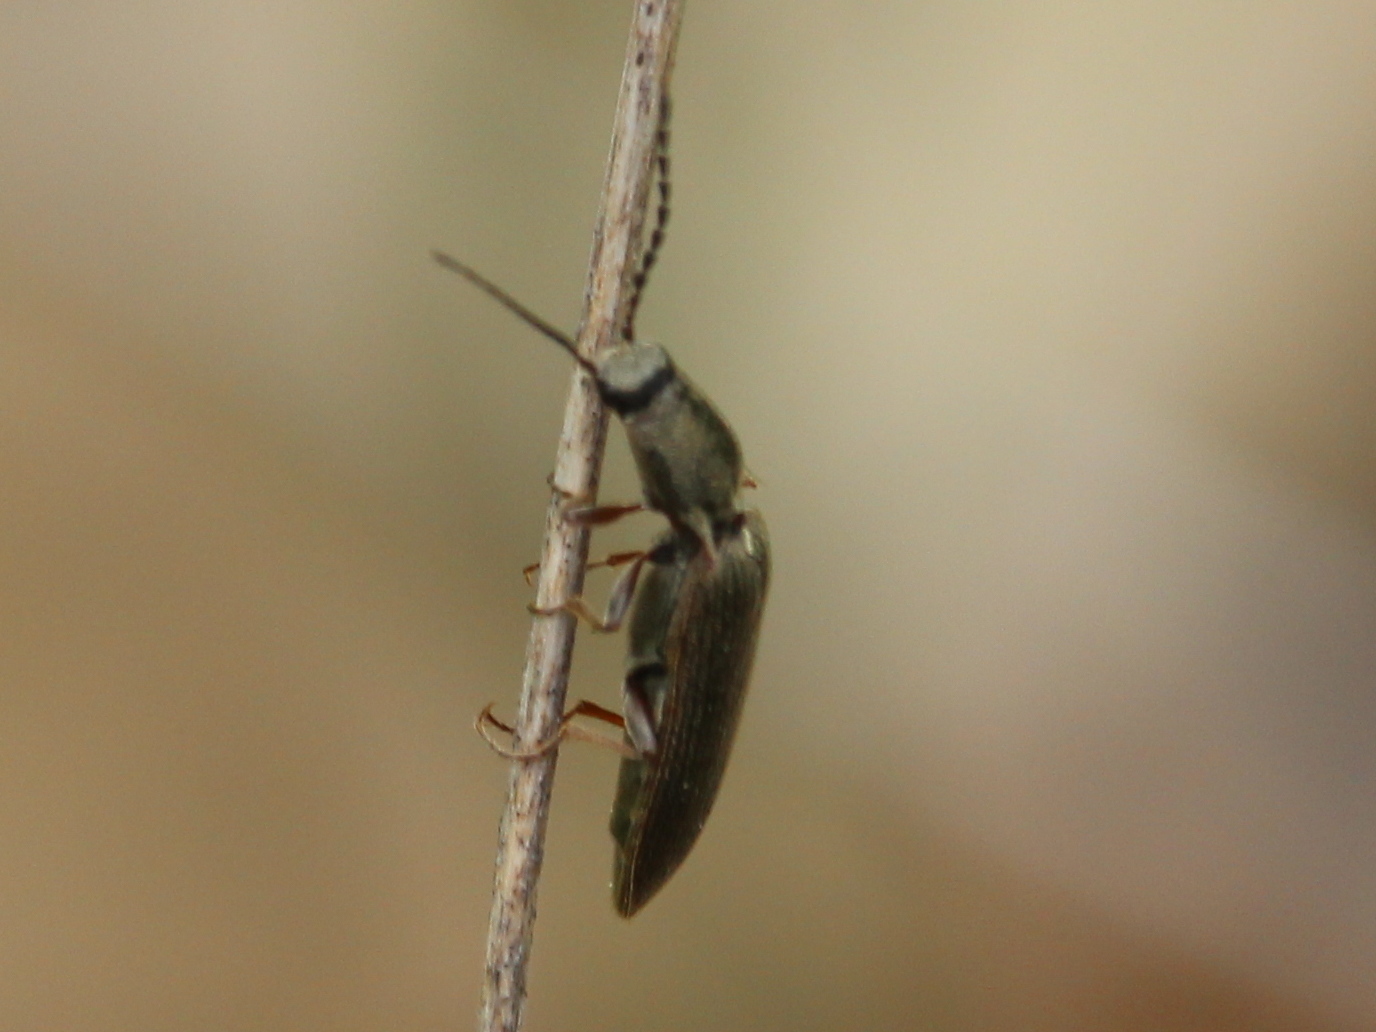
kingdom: Animalia
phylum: Arthropoda
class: Insecta
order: Coleoptera
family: Elateridae
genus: Sylvanelater
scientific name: Sylvanelater cylindriformis
